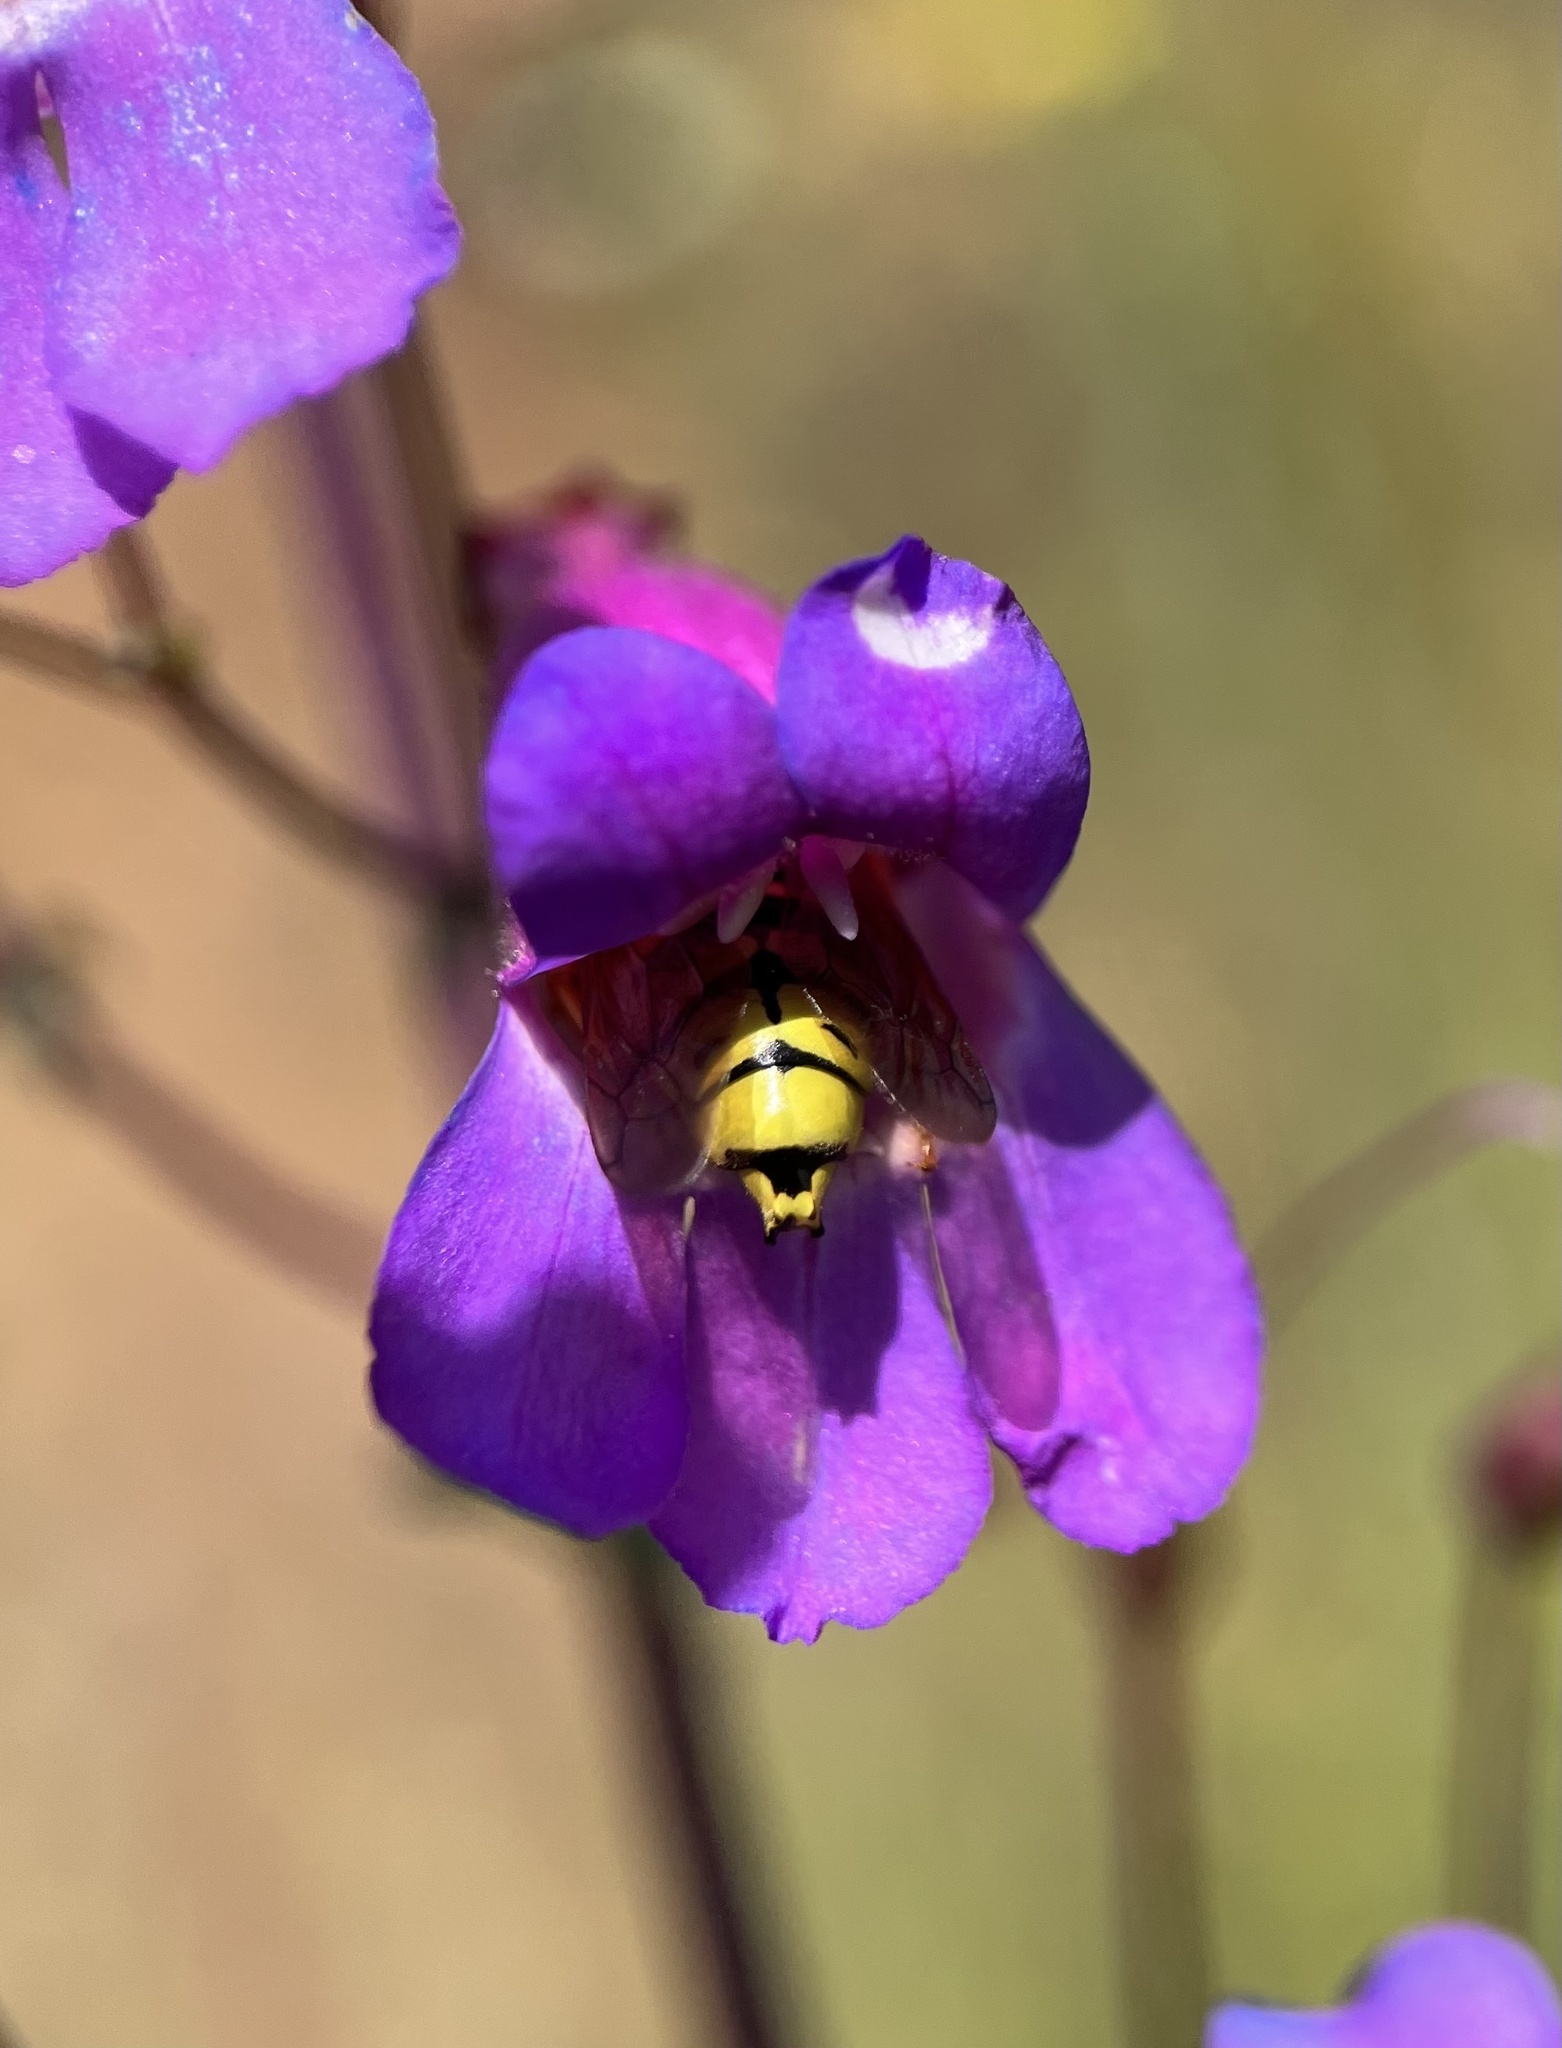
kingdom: Animalia
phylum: Arthropoda
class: Insecta
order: Hymenoptera
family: Masaridae
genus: Pseudomasaris
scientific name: Pseudomasaris vespoides
